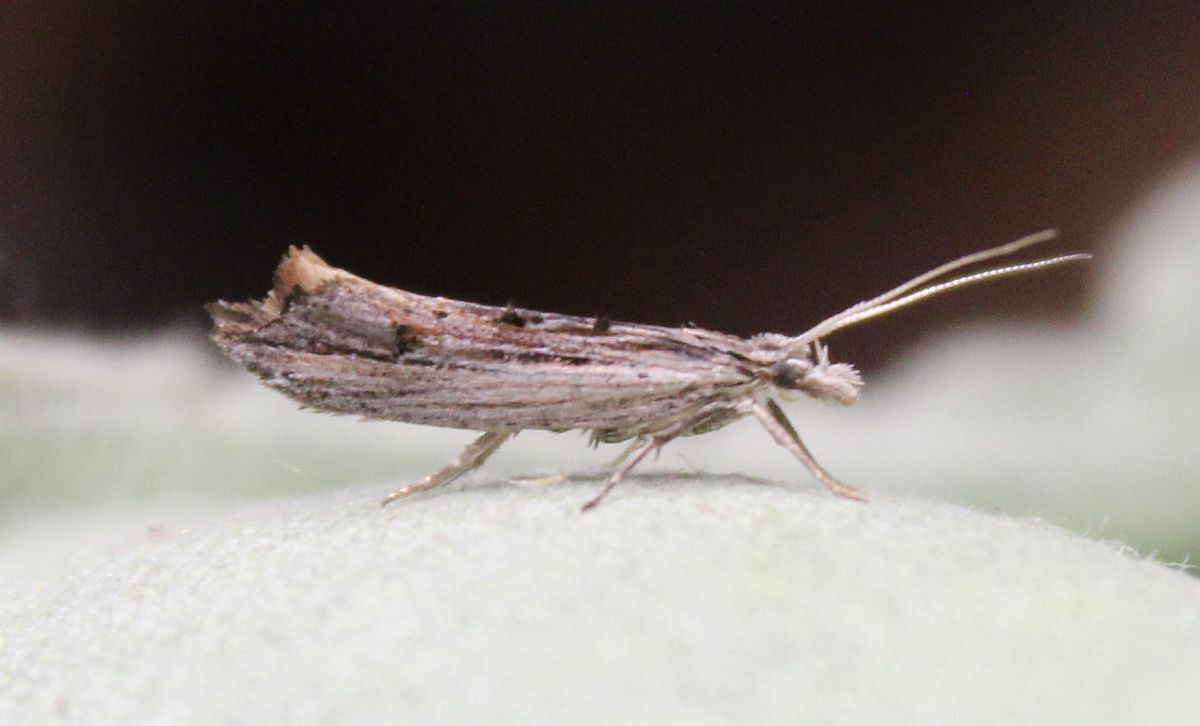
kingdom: Animalia
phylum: Arthropoda
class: Insecta
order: Lepidoptera
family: Ypsolophidae
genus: Ypsolopha
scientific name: Ypsolopha scabrella
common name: Wainscot smudge
